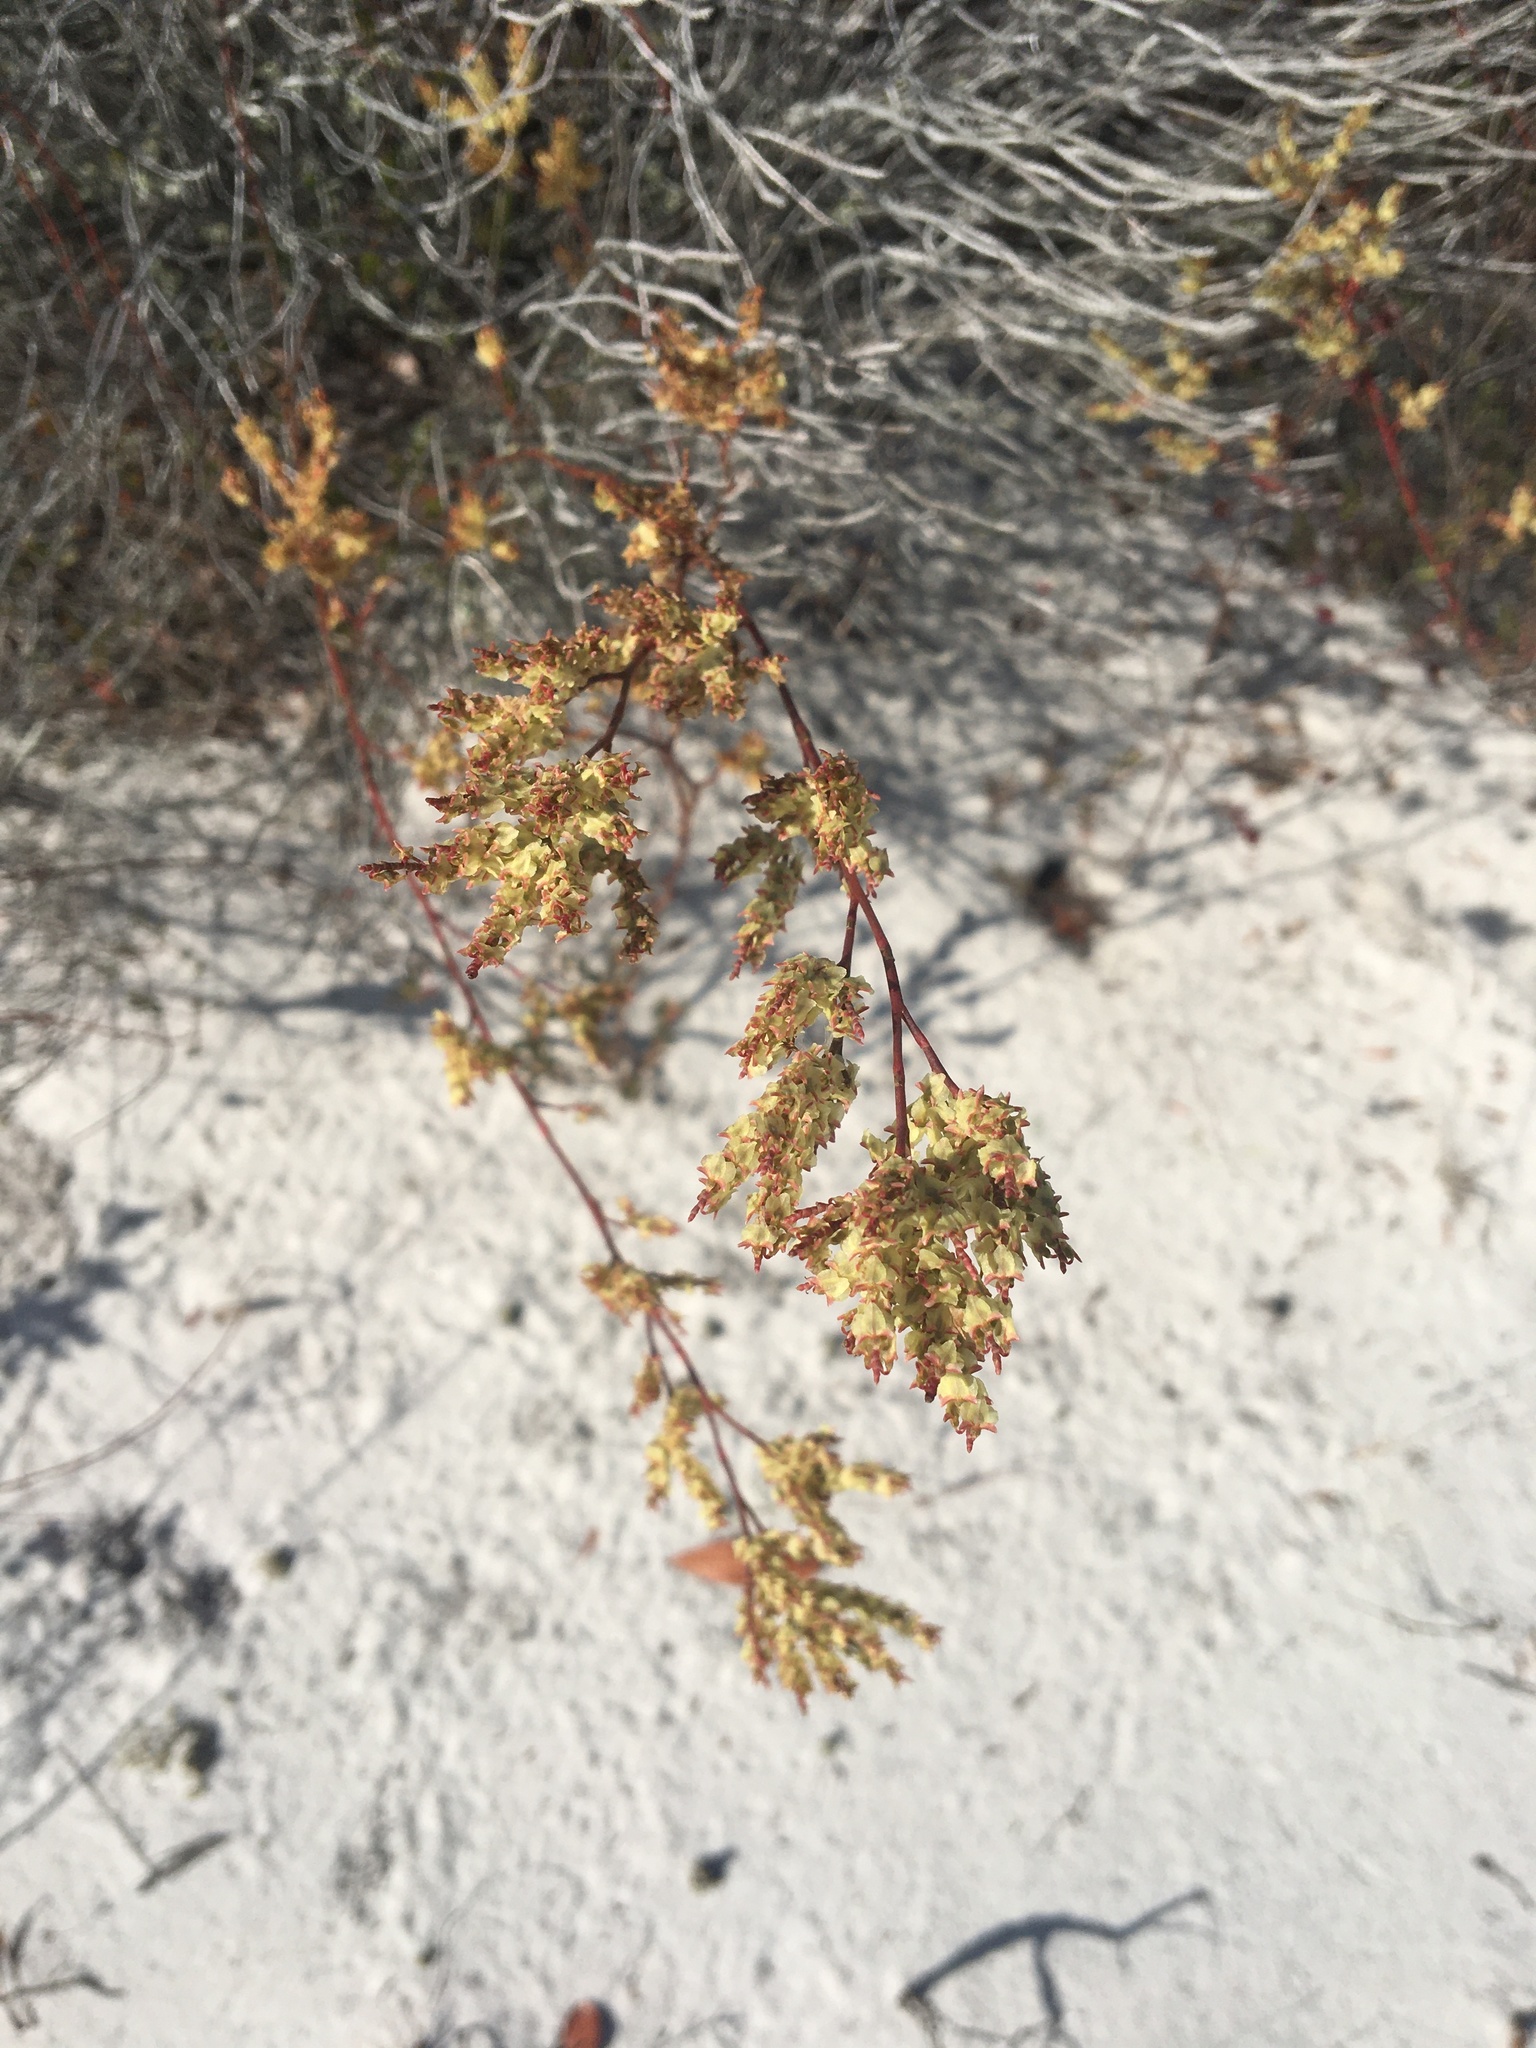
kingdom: Plantae
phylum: Tracheophyta
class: Magnoliopsida
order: Caryophyllales
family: Polygonaceae
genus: Polygonella
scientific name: Polygonella polygama
